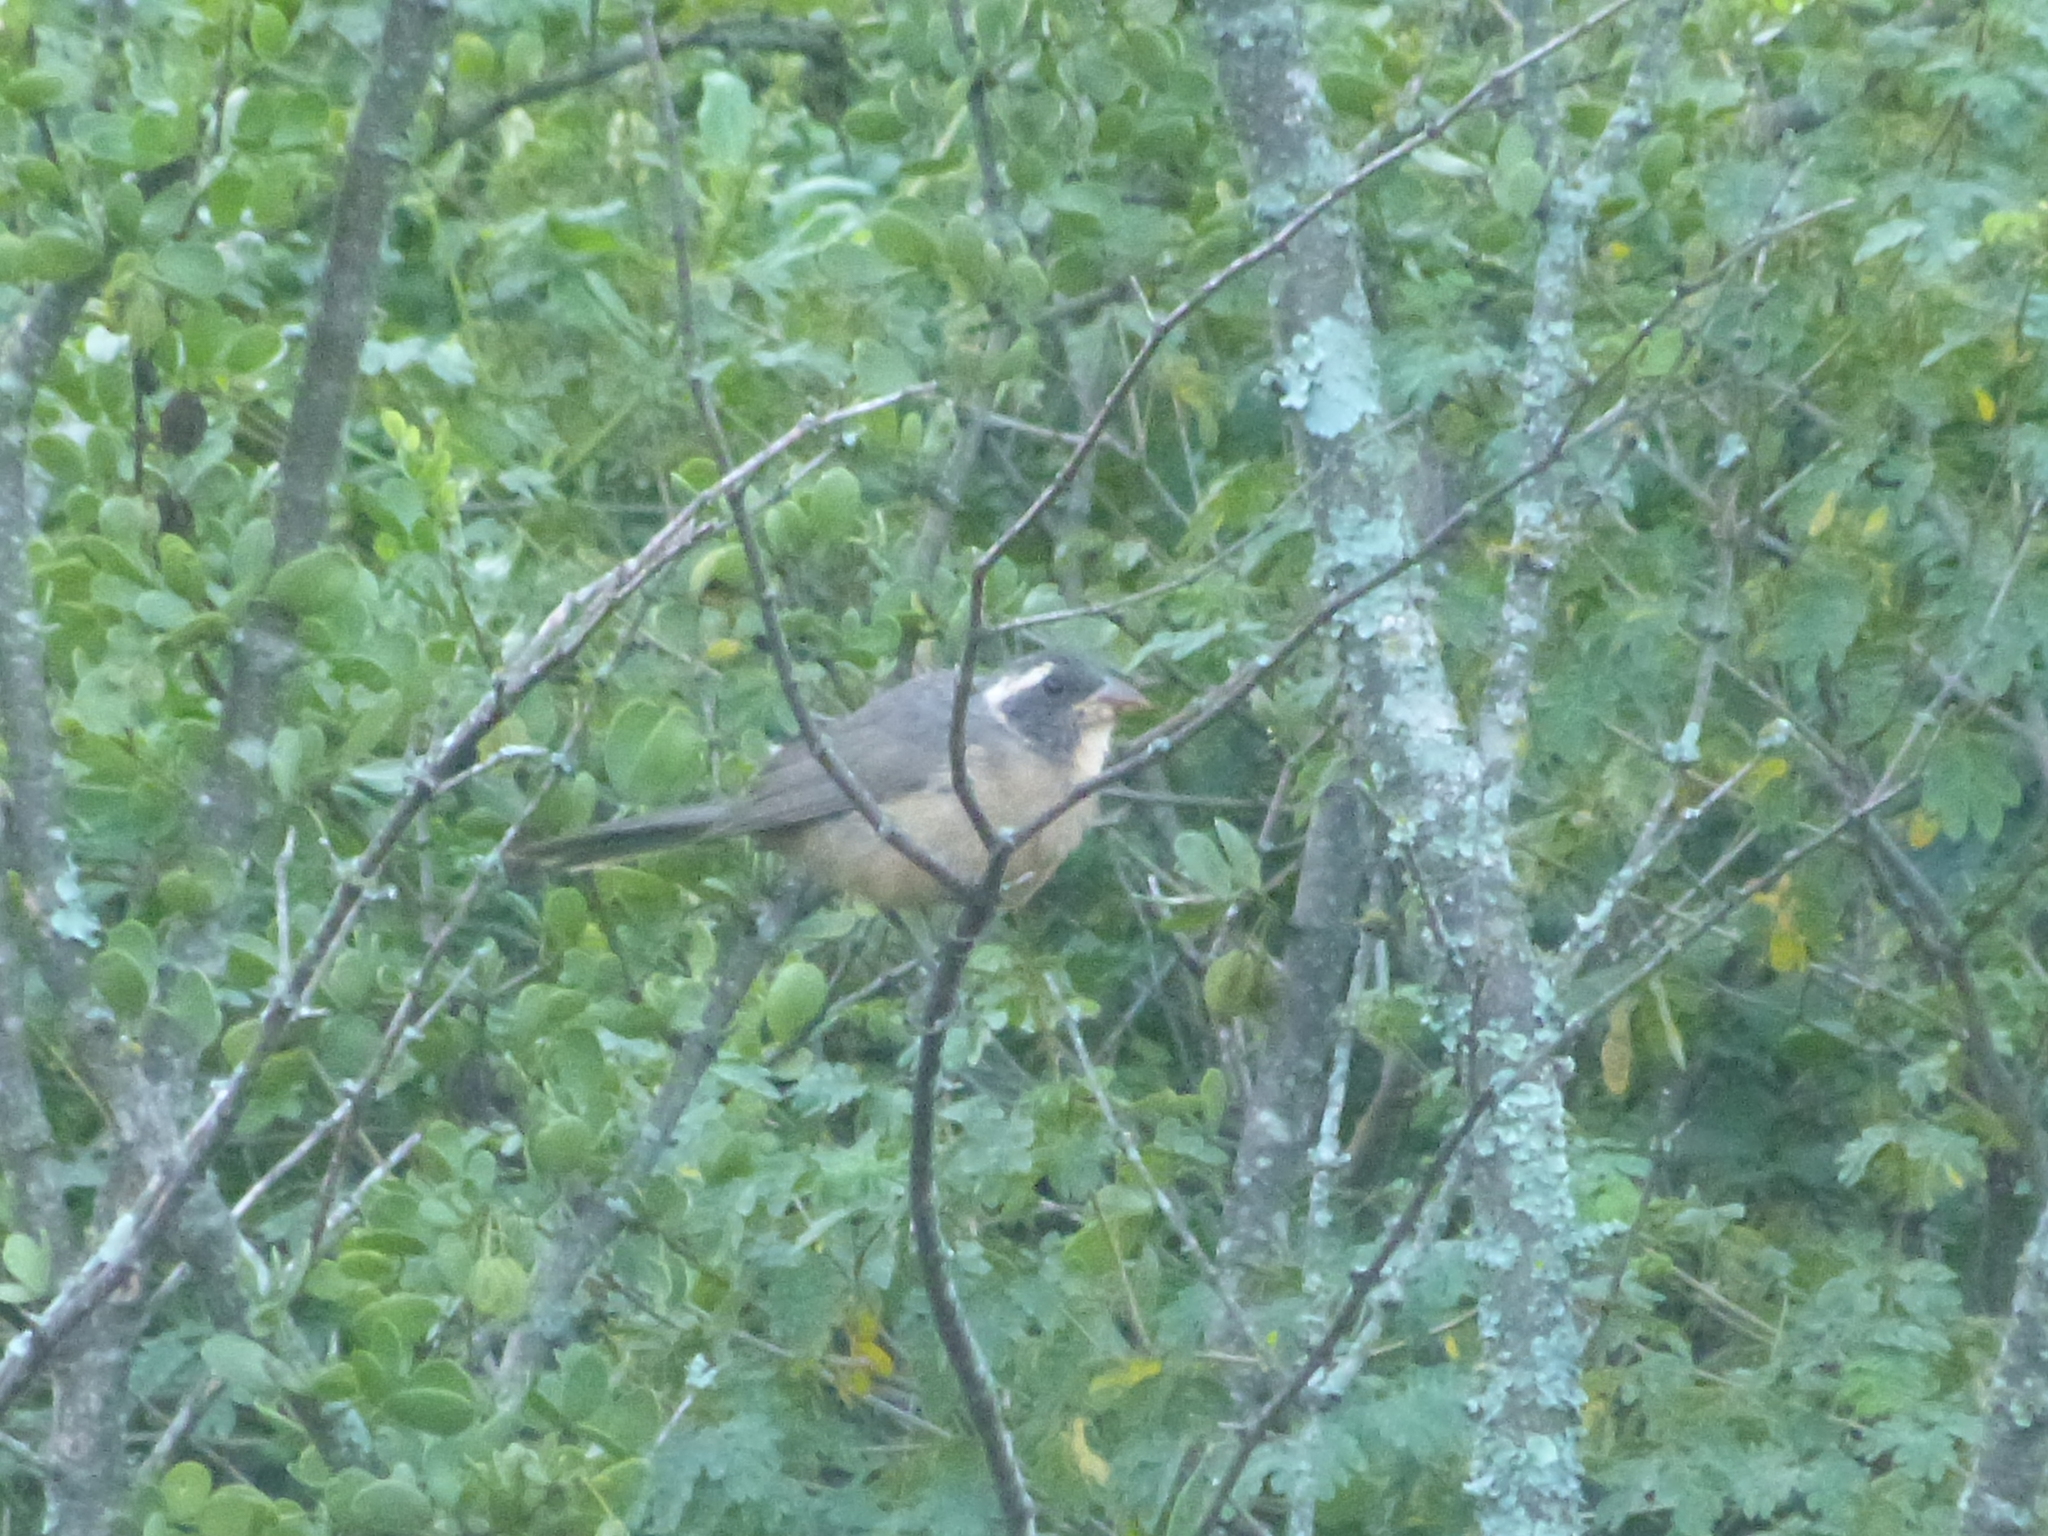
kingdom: Animalia
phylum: Chordata
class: Aves
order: Passeriformes
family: Thraupidae
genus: Saltator
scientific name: Saltator aurantiirostris
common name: Golden-billed saltator
